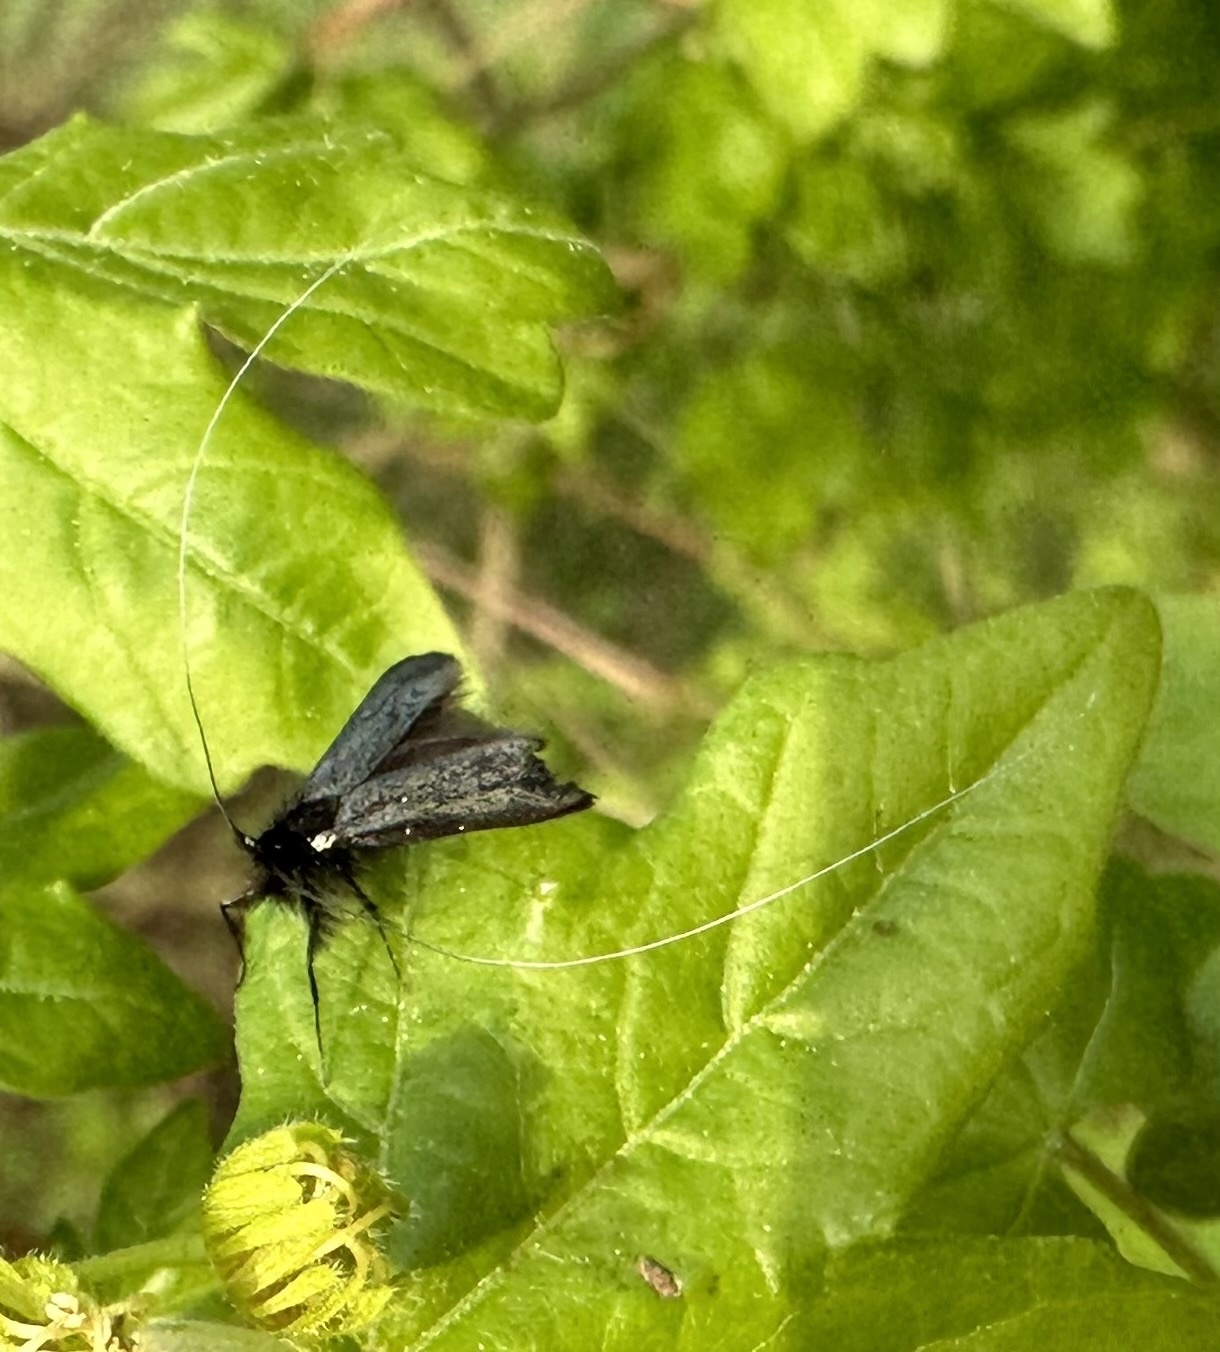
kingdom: Animalia
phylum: Arthropoda
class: Insecta
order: Lepidoptera
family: Adelidae
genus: Adela
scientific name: Adela viridella
